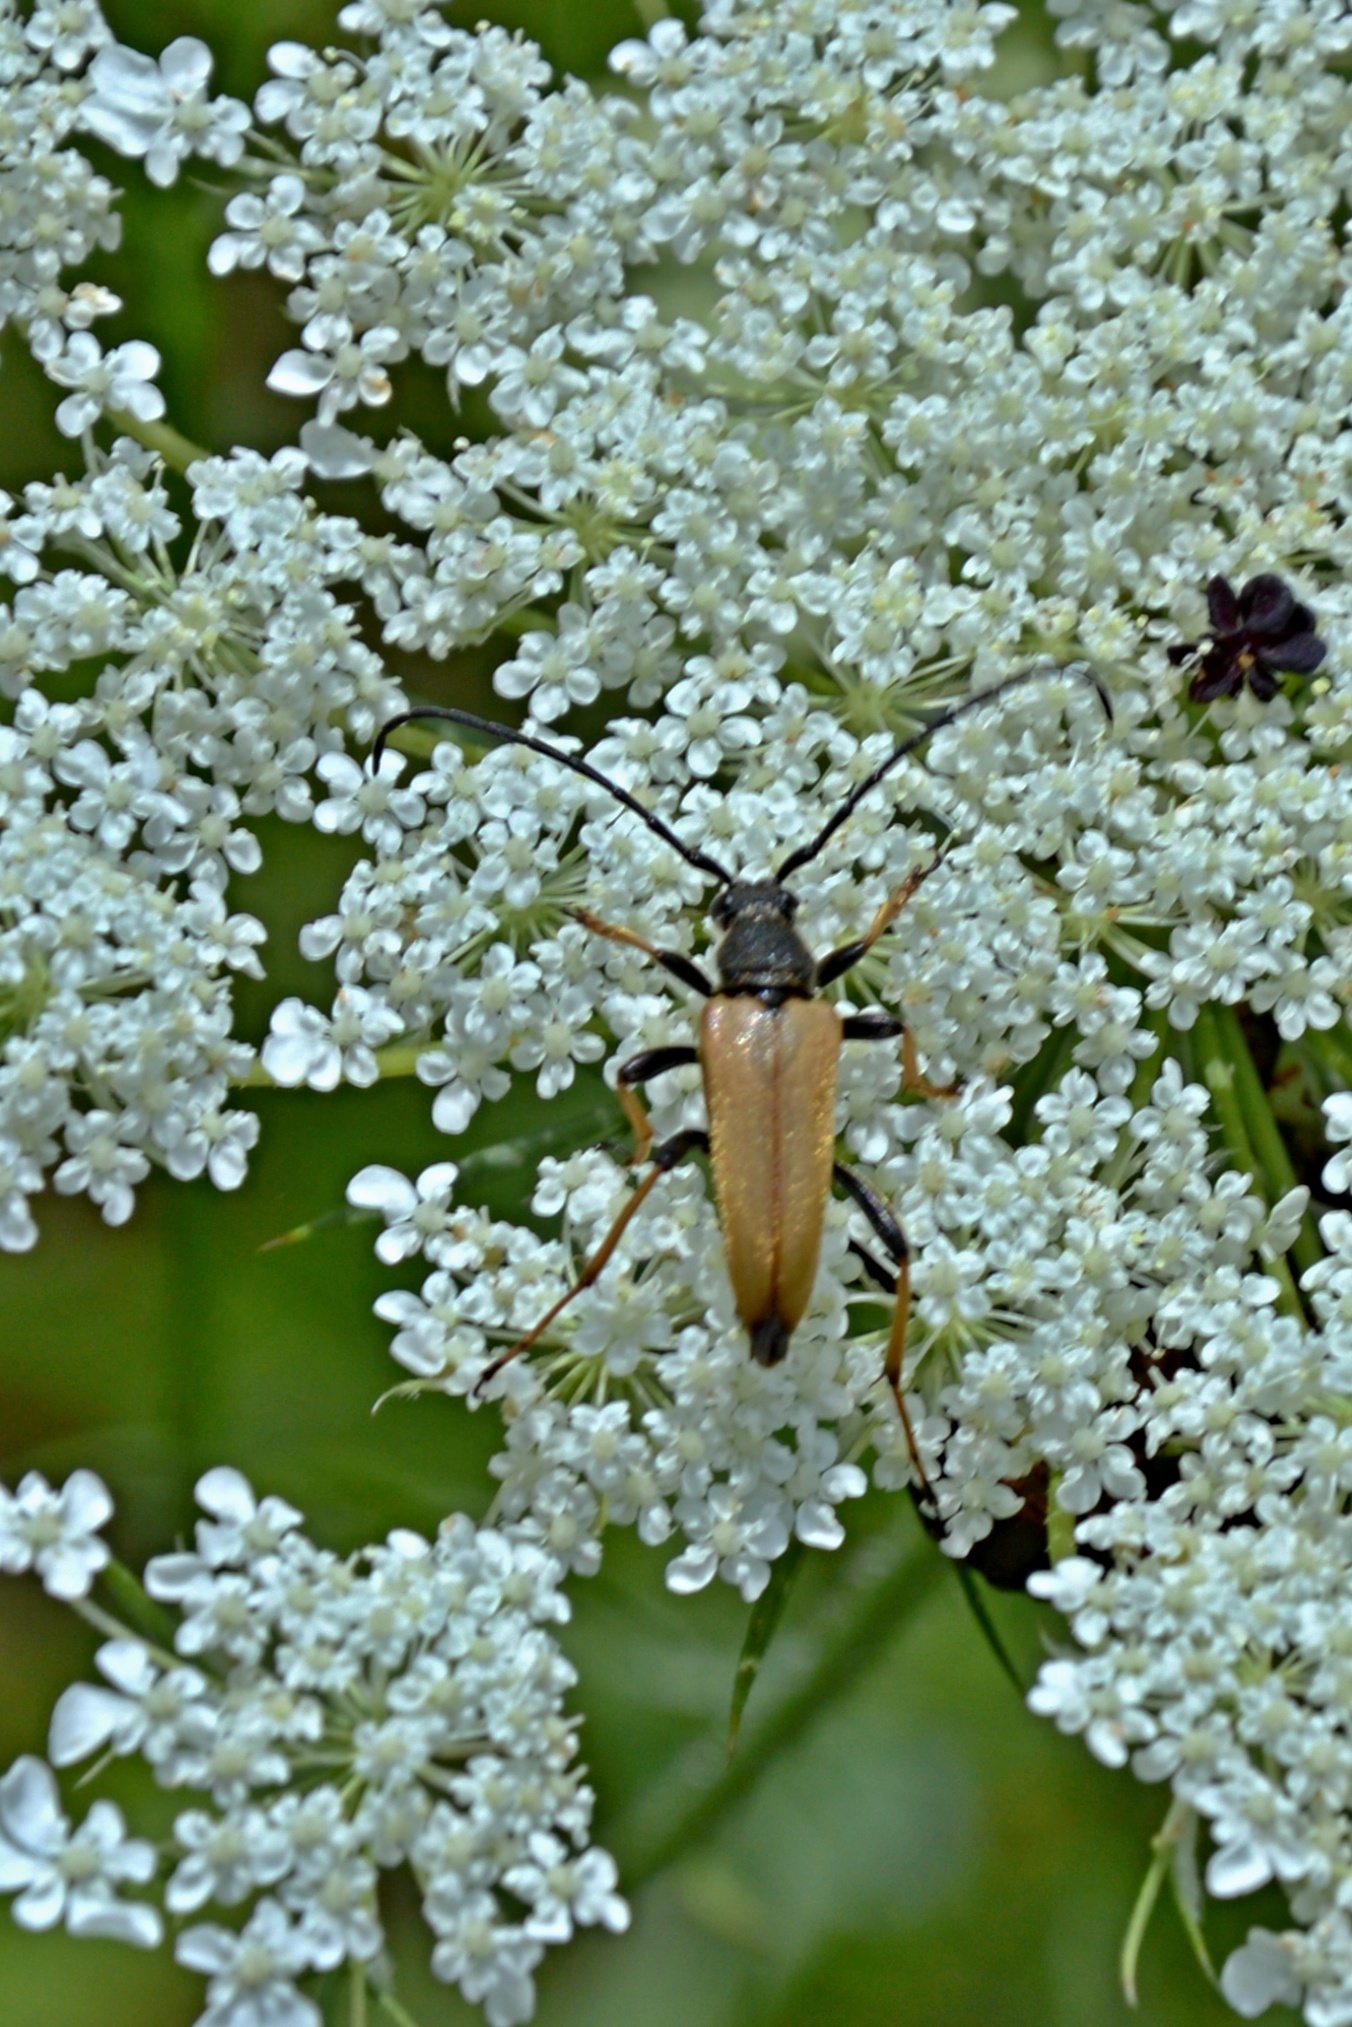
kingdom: Animalia
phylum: Arthropoda
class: Insecta
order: Coleoptera
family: Cerambycidae
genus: Stictoleptura
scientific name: Stictoleptura rubra
